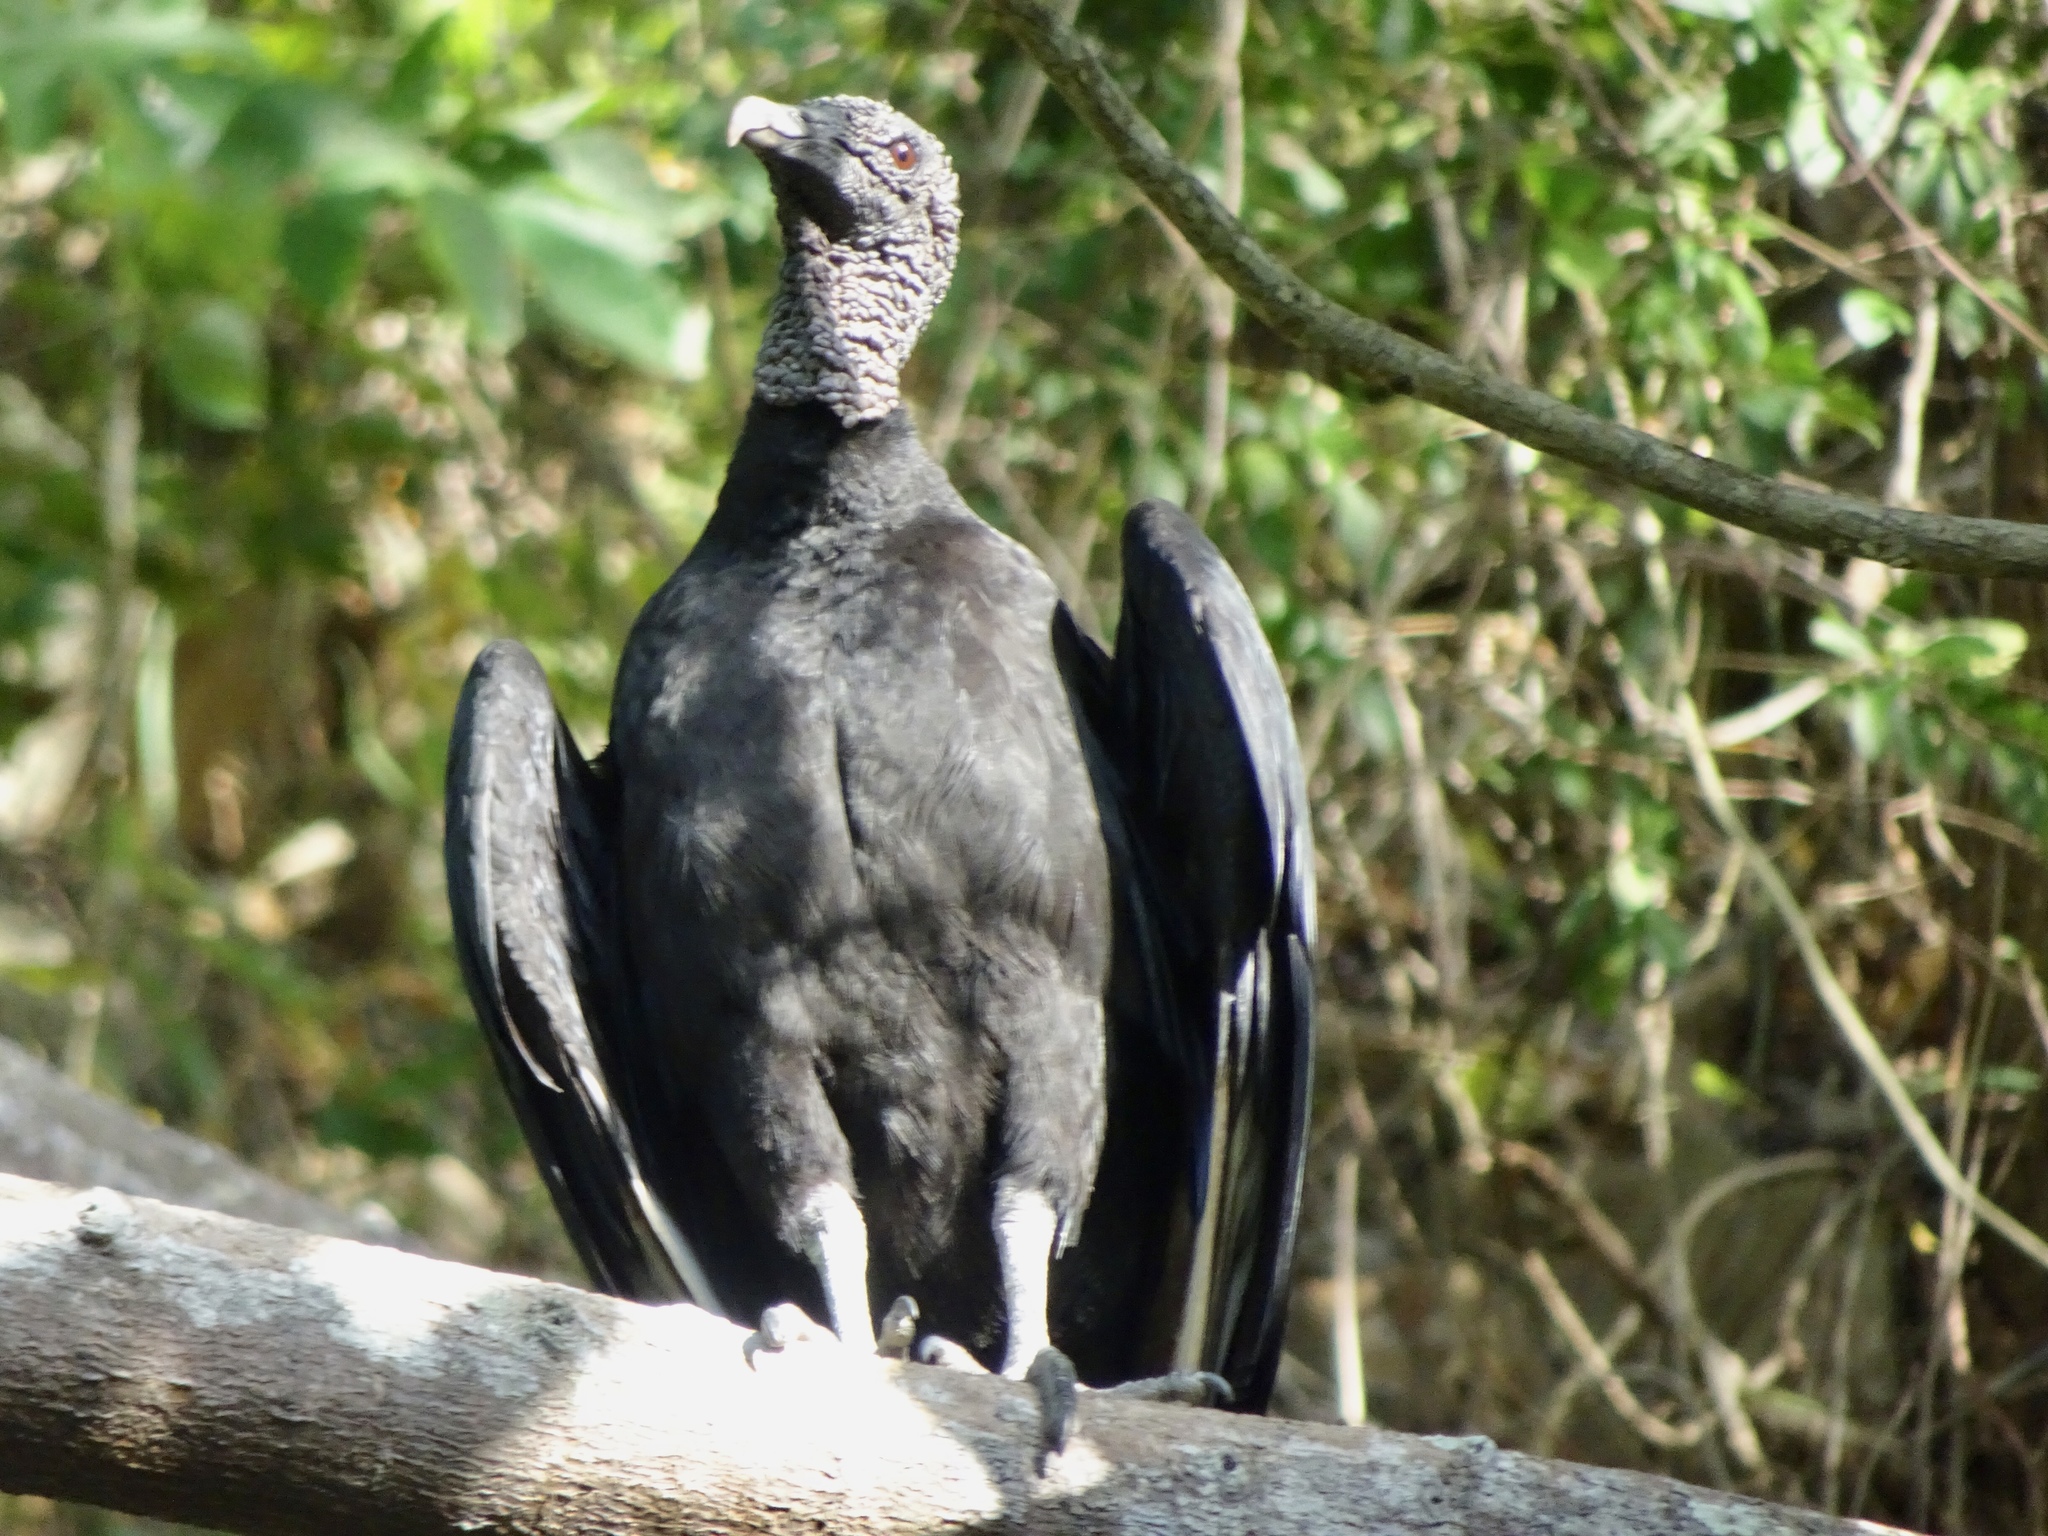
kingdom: Animalia
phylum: Chordata
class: Aves
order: Accipitriformes
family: Cathartidae
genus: Coragyps
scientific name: Coragyps atratus
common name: Black vulture
